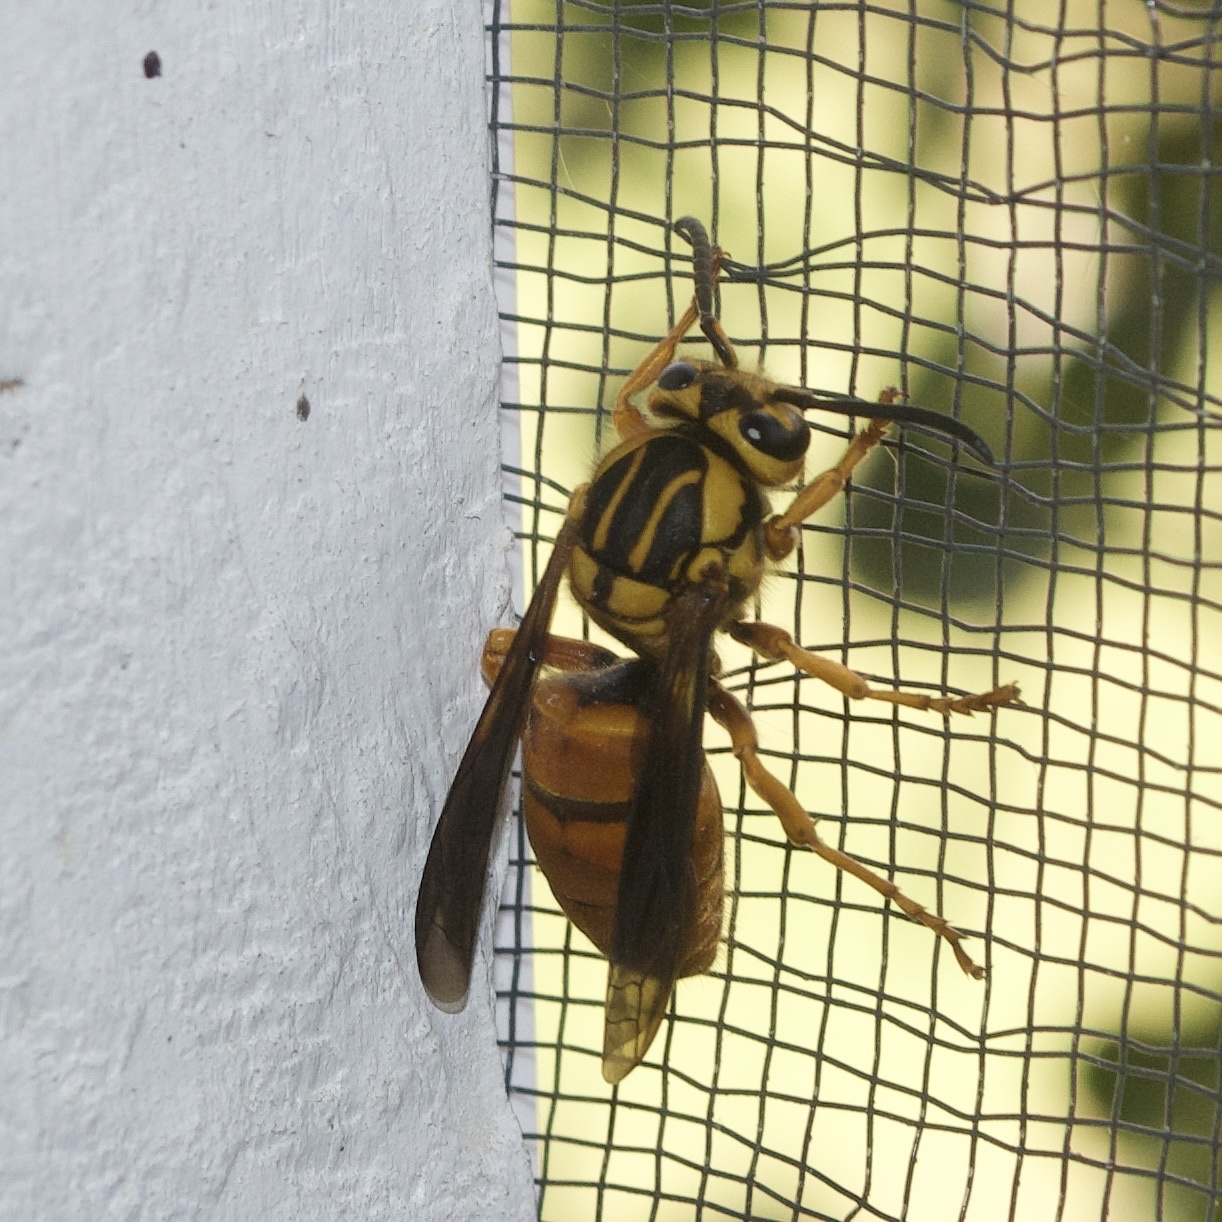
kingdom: Animalia
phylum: Arthropoda
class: Insecta
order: Hymenoptera
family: Vespidae
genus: Vespula
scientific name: Vespula squamosa
